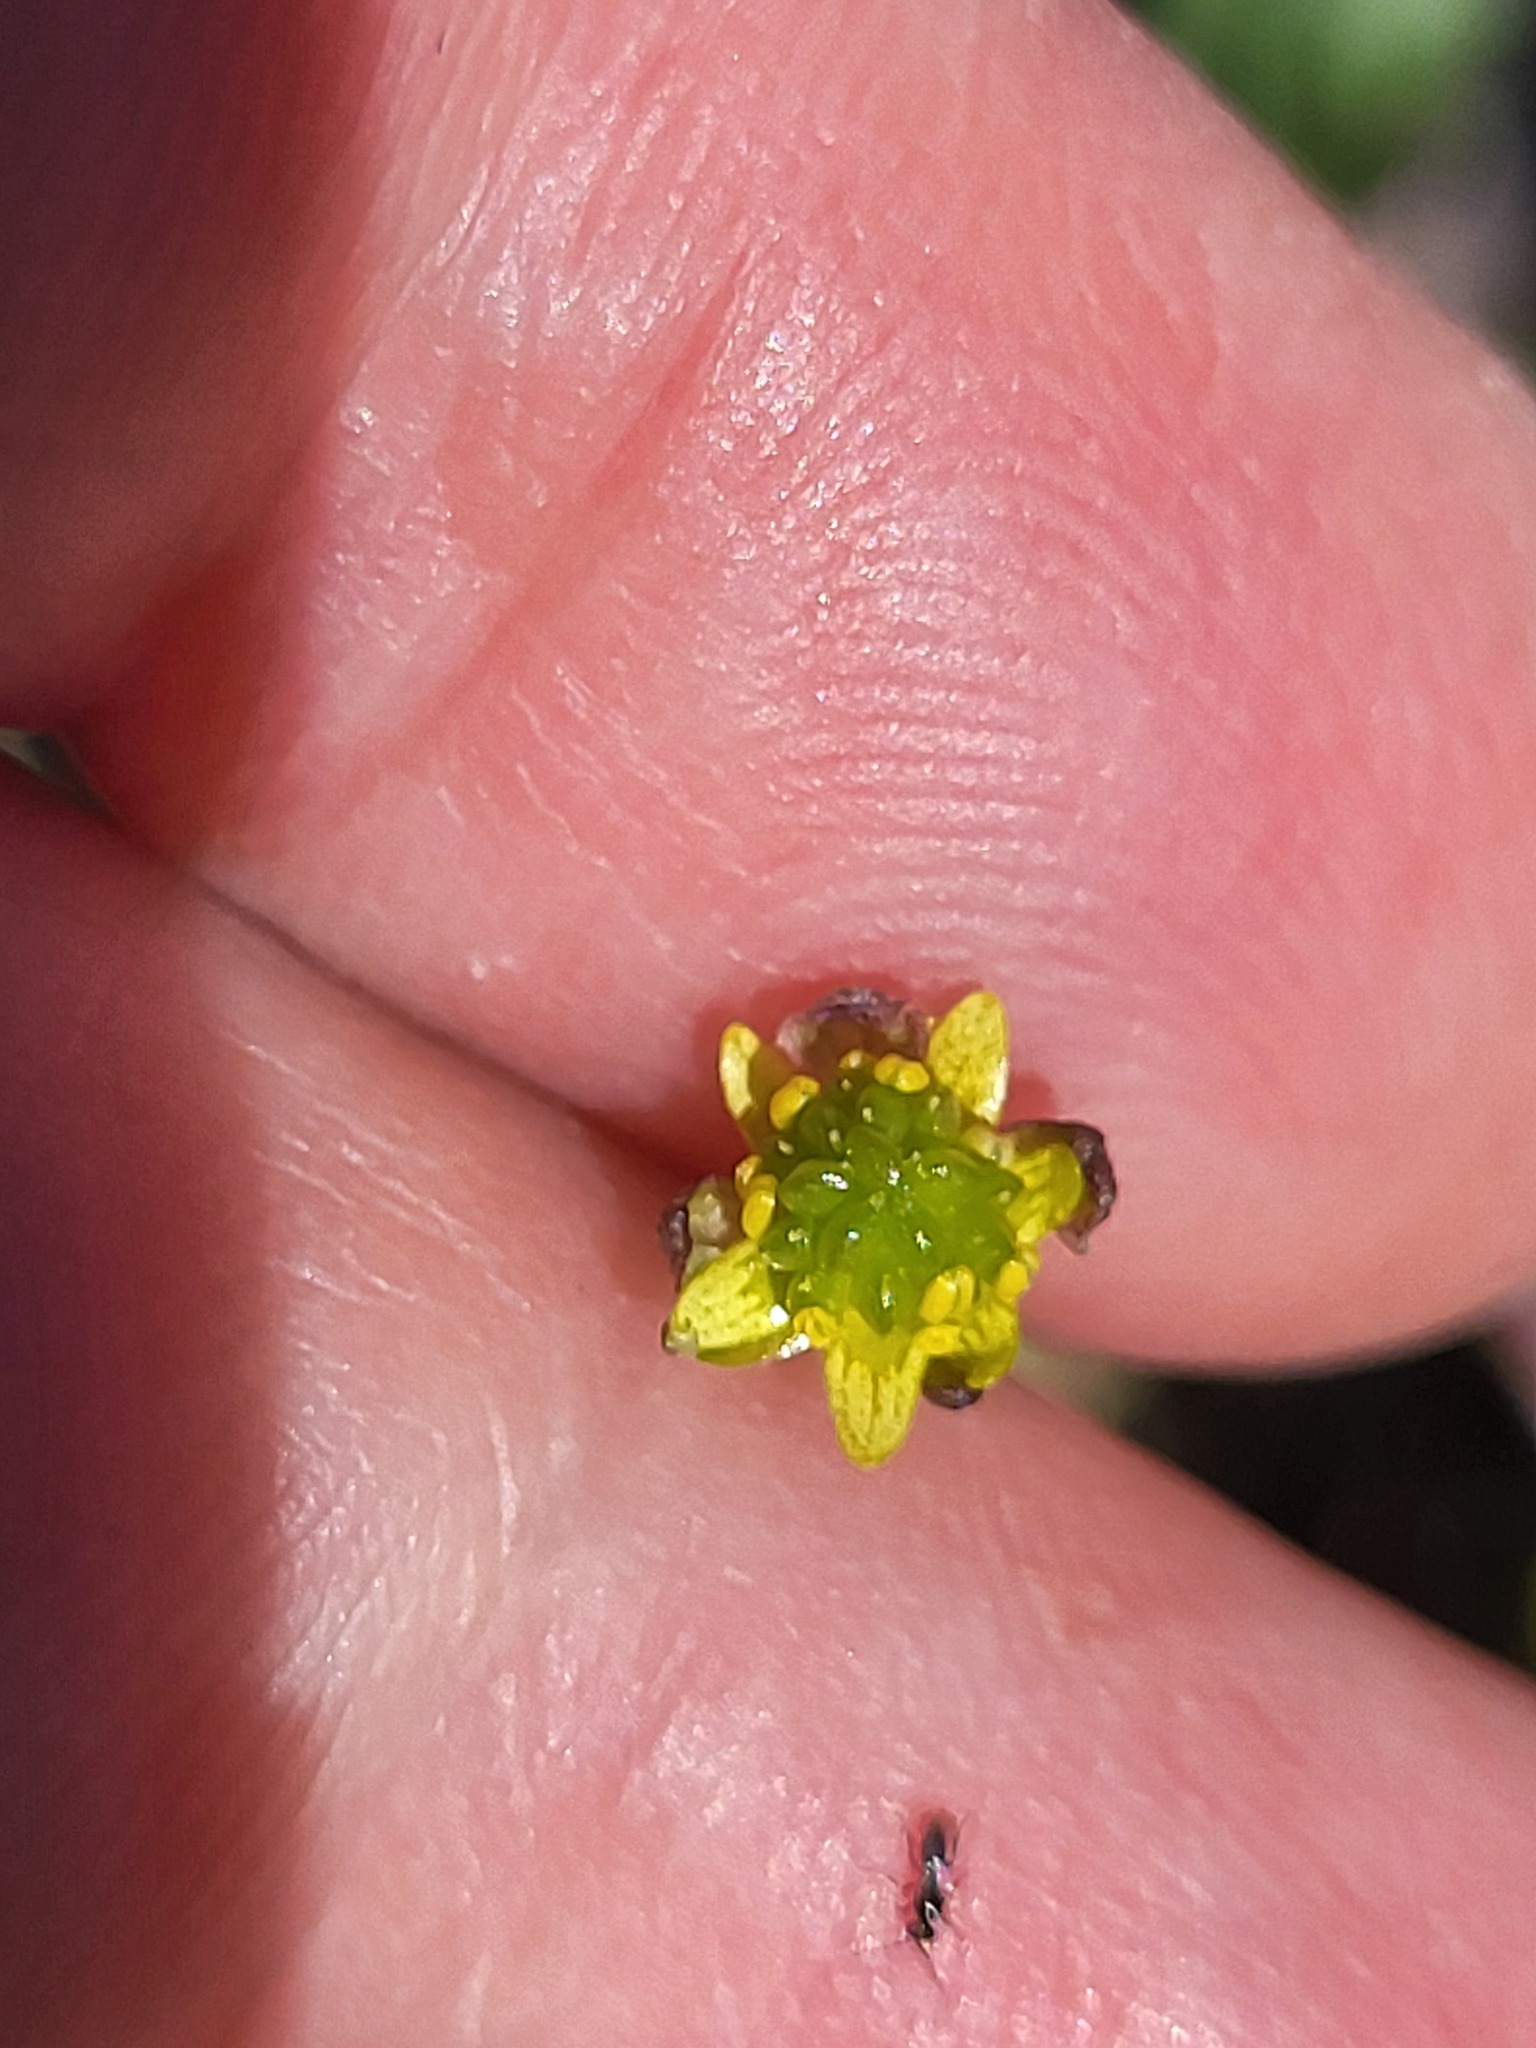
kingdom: Plantae
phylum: Tracheophyta
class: Magnoliopsida
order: Ranunculales
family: Ranunculaceae
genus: Ranunculus
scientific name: Ranunculus abortivus
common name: Early wood buttercup
